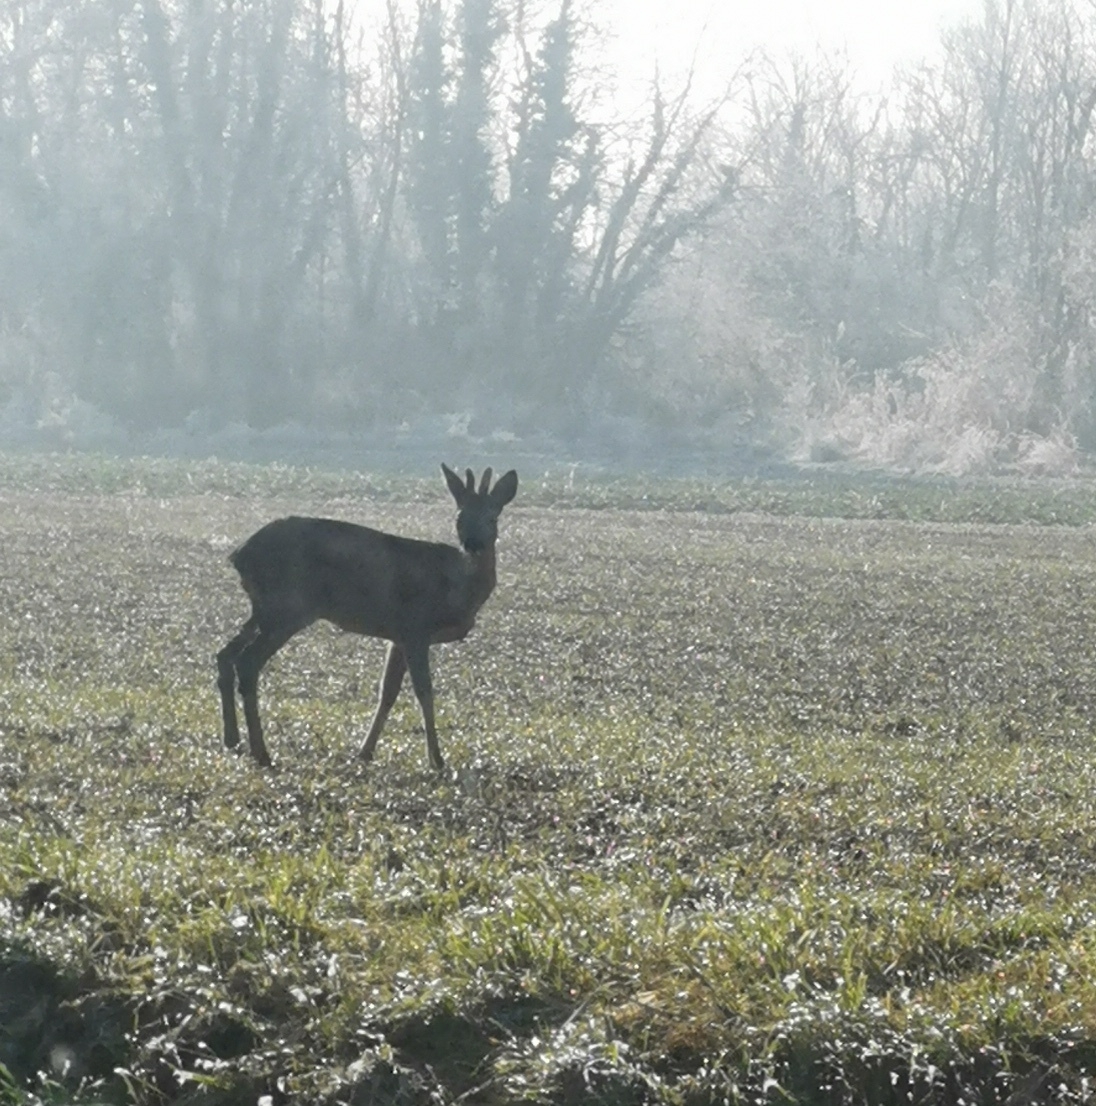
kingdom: Animalia
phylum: Chordata
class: Mammalia
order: Artiodactyla
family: Cervidae
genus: Capreolus
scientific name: Capreolus capreolus
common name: Western roe deer
